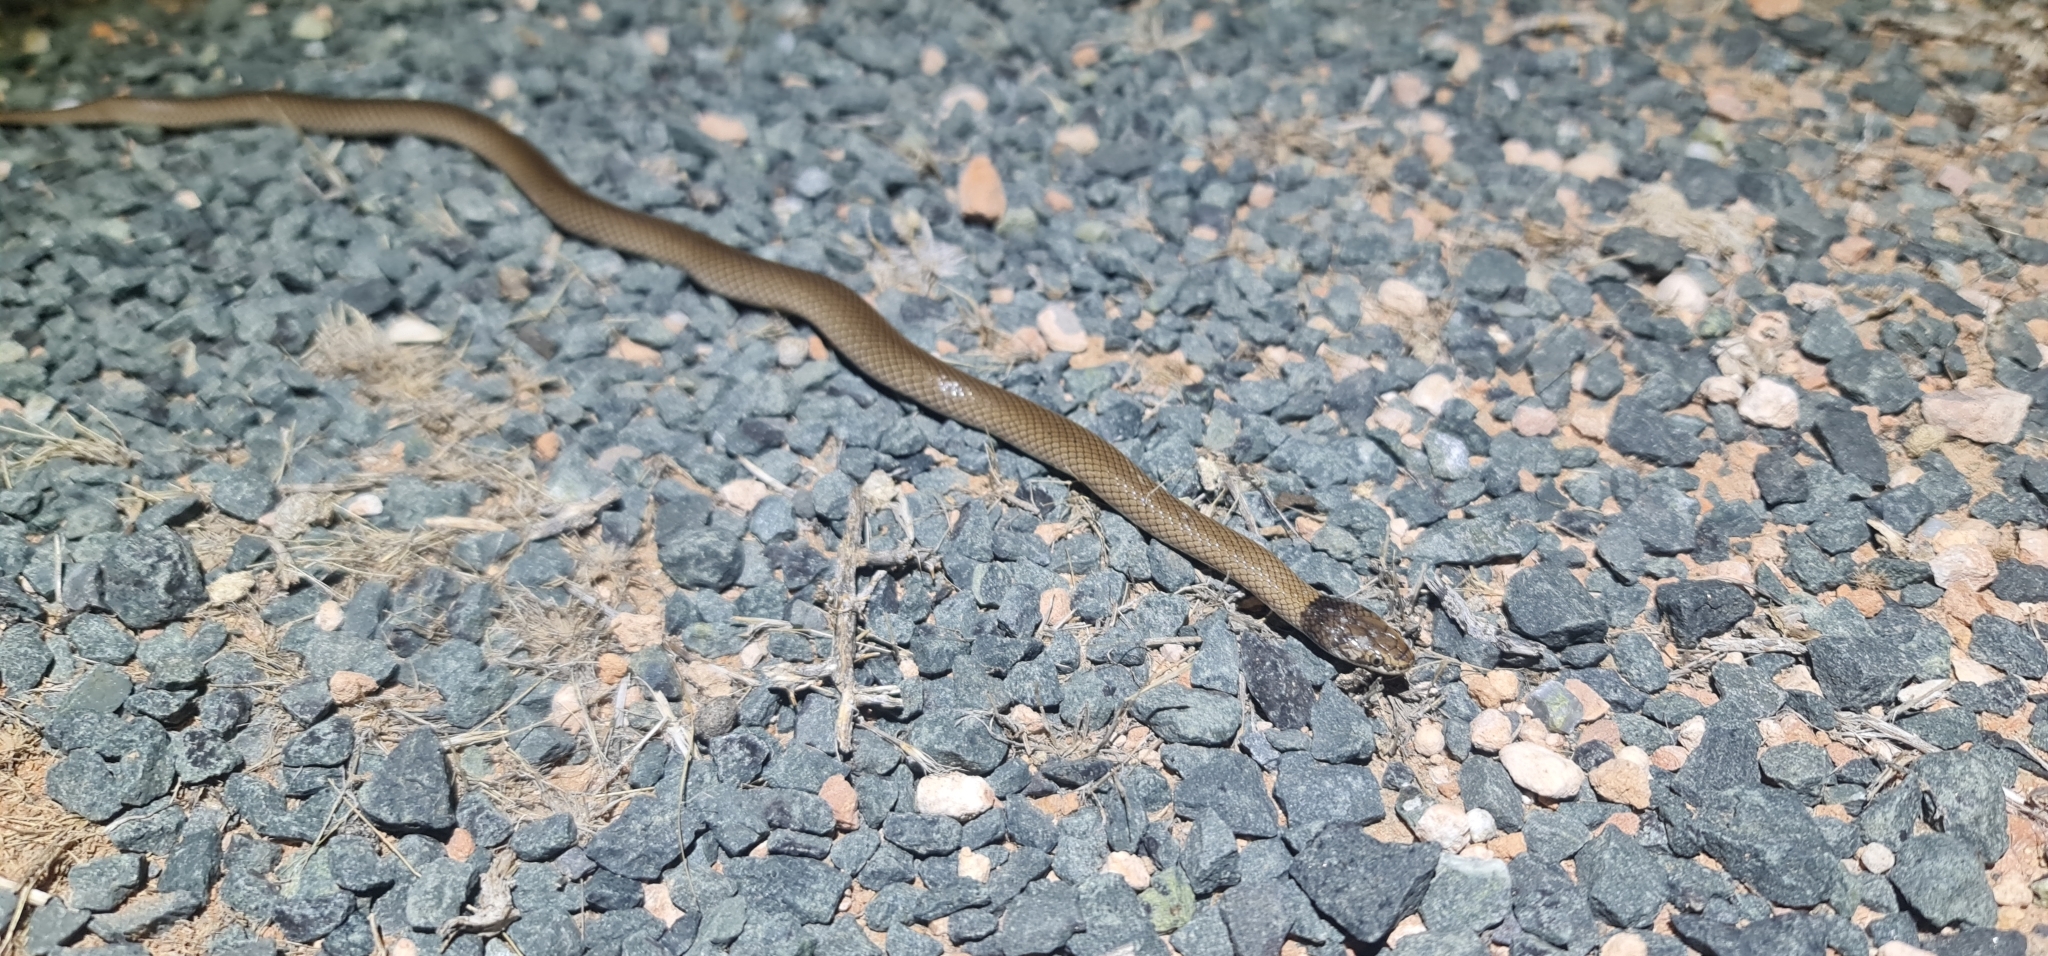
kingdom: Animalia
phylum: Chordata
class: Squamata
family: Elapidae
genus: Suta
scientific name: Suta suta
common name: Curl snake
